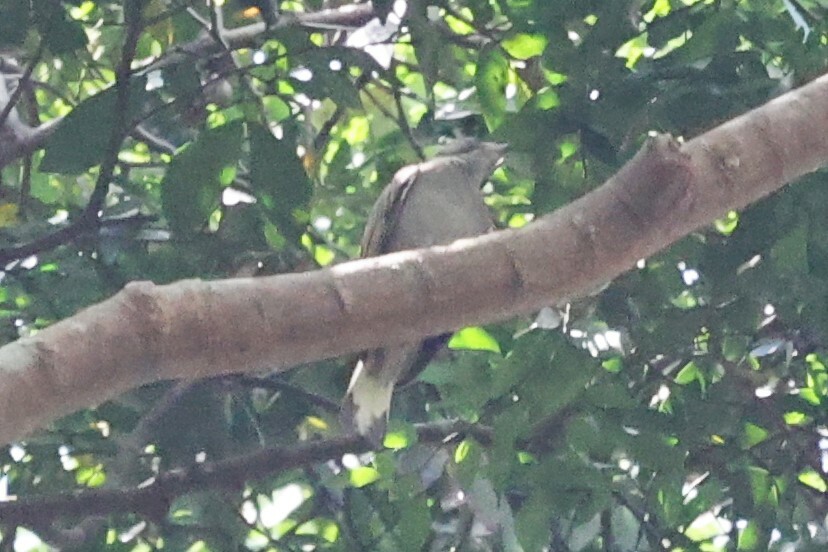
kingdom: Animalia
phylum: Chordata
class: Aves
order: Piciformes
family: Indicatoridae
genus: Indicator
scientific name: Indicator exilis
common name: Least honeyguide
